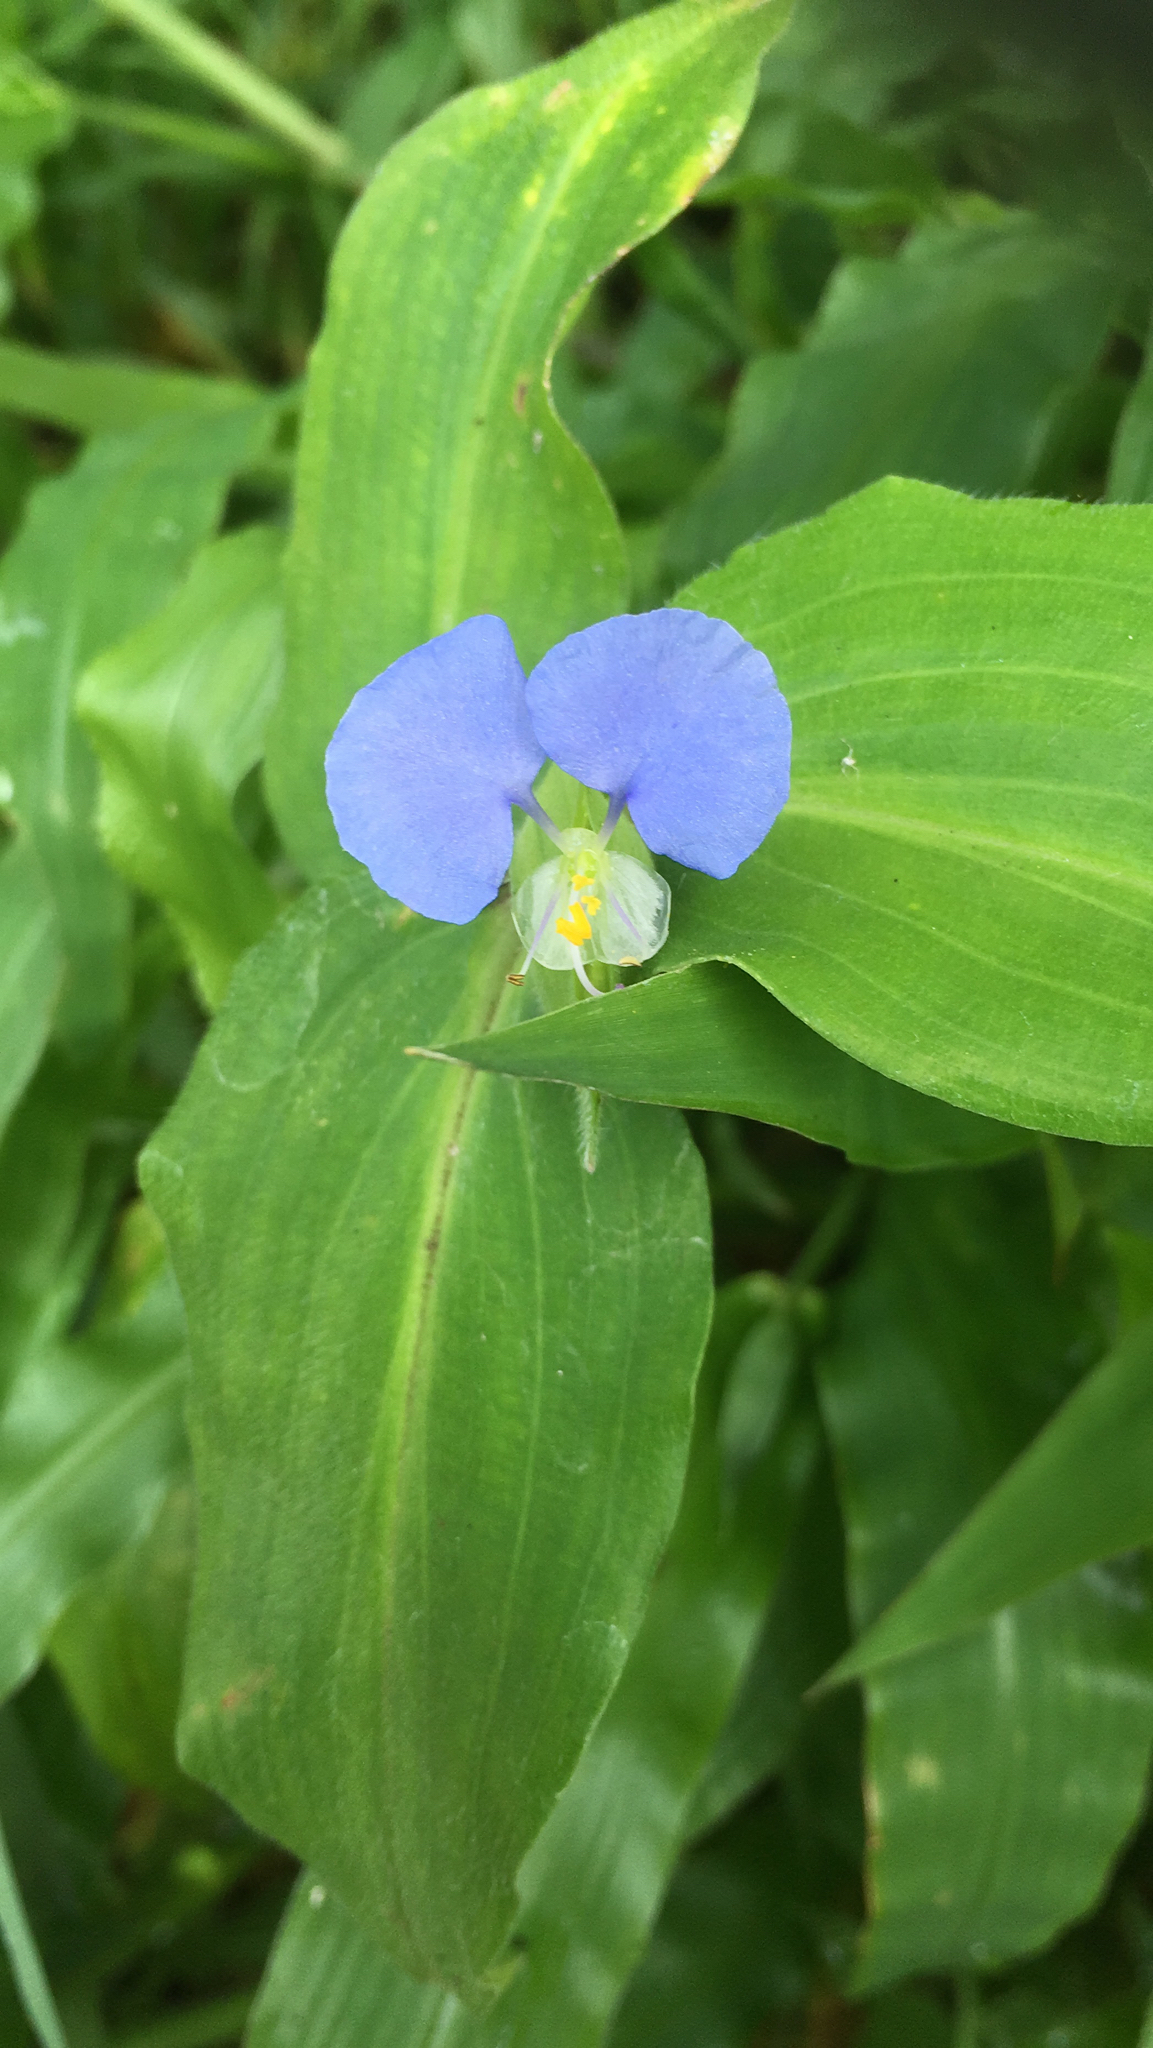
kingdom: Plantae
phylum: Tracheophyta
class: Liliopsida
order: Commelinales
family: Commelinaceae
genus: Commelina
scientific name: Commelina erecta
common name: Blousel blommetjie
